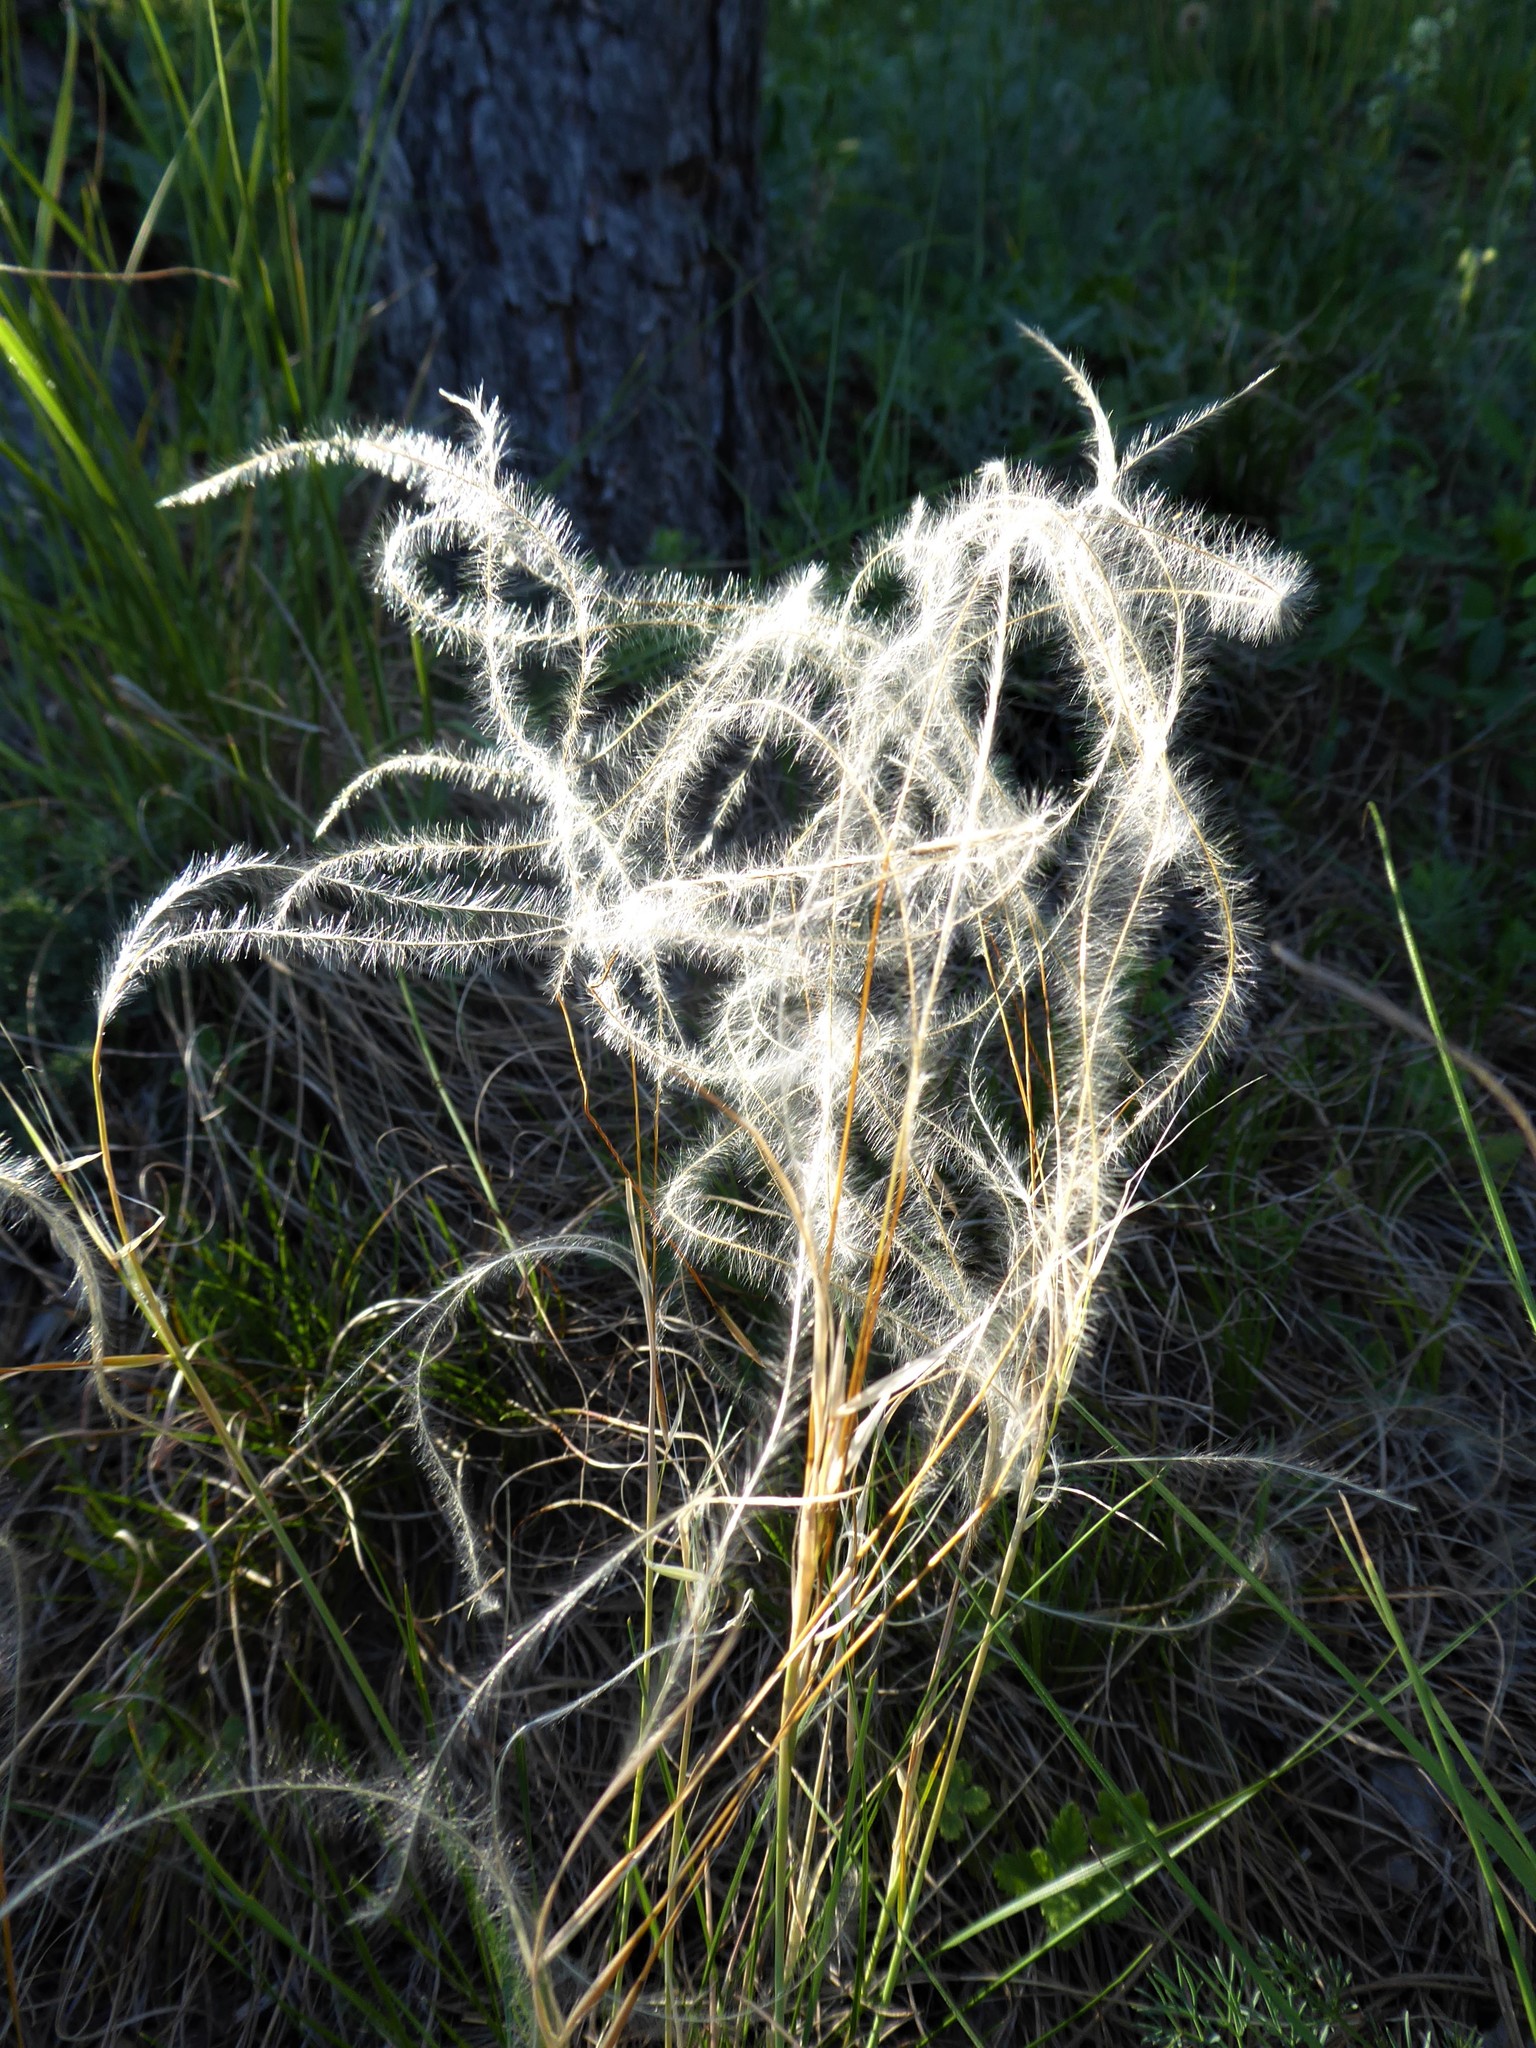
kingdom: Plantae
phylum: Tracheophyta
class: Liliopsida
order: Poales
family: Poaceae
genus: Stipa
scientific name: Stipa pennata
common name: European feather grass
